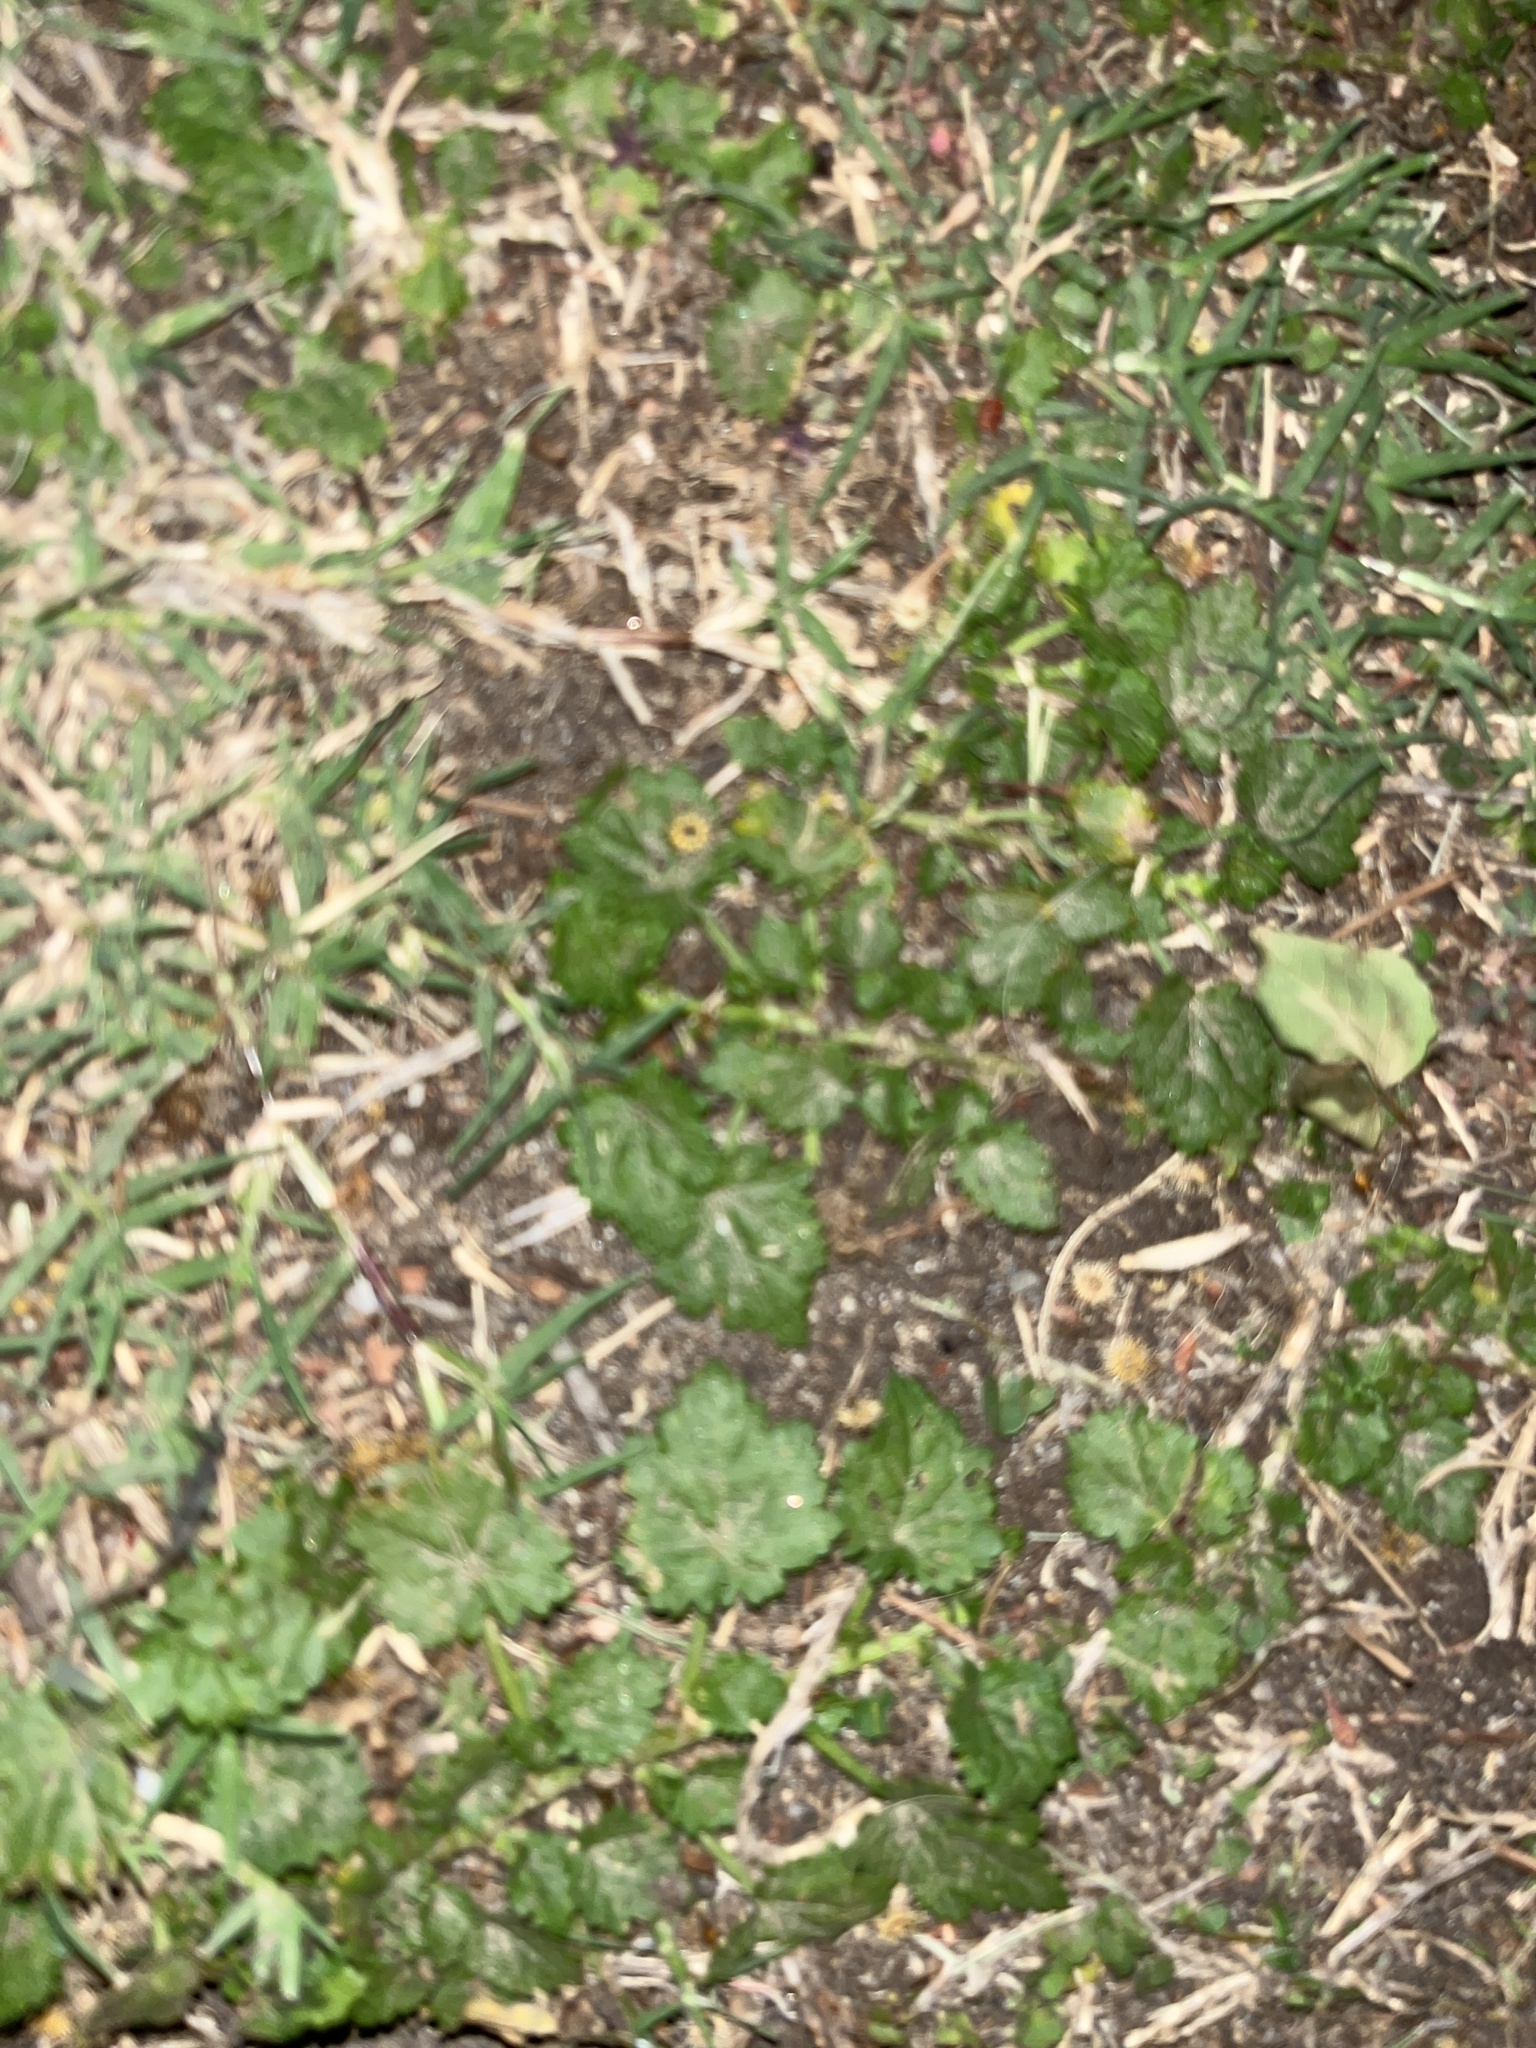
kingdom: Plantae
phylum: Tracheophyta
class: Magnoliopsida
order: Malvales
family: Malvaceae
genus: Modiola
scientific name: Modiola caroliniana
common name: Carolina bristlemallow
